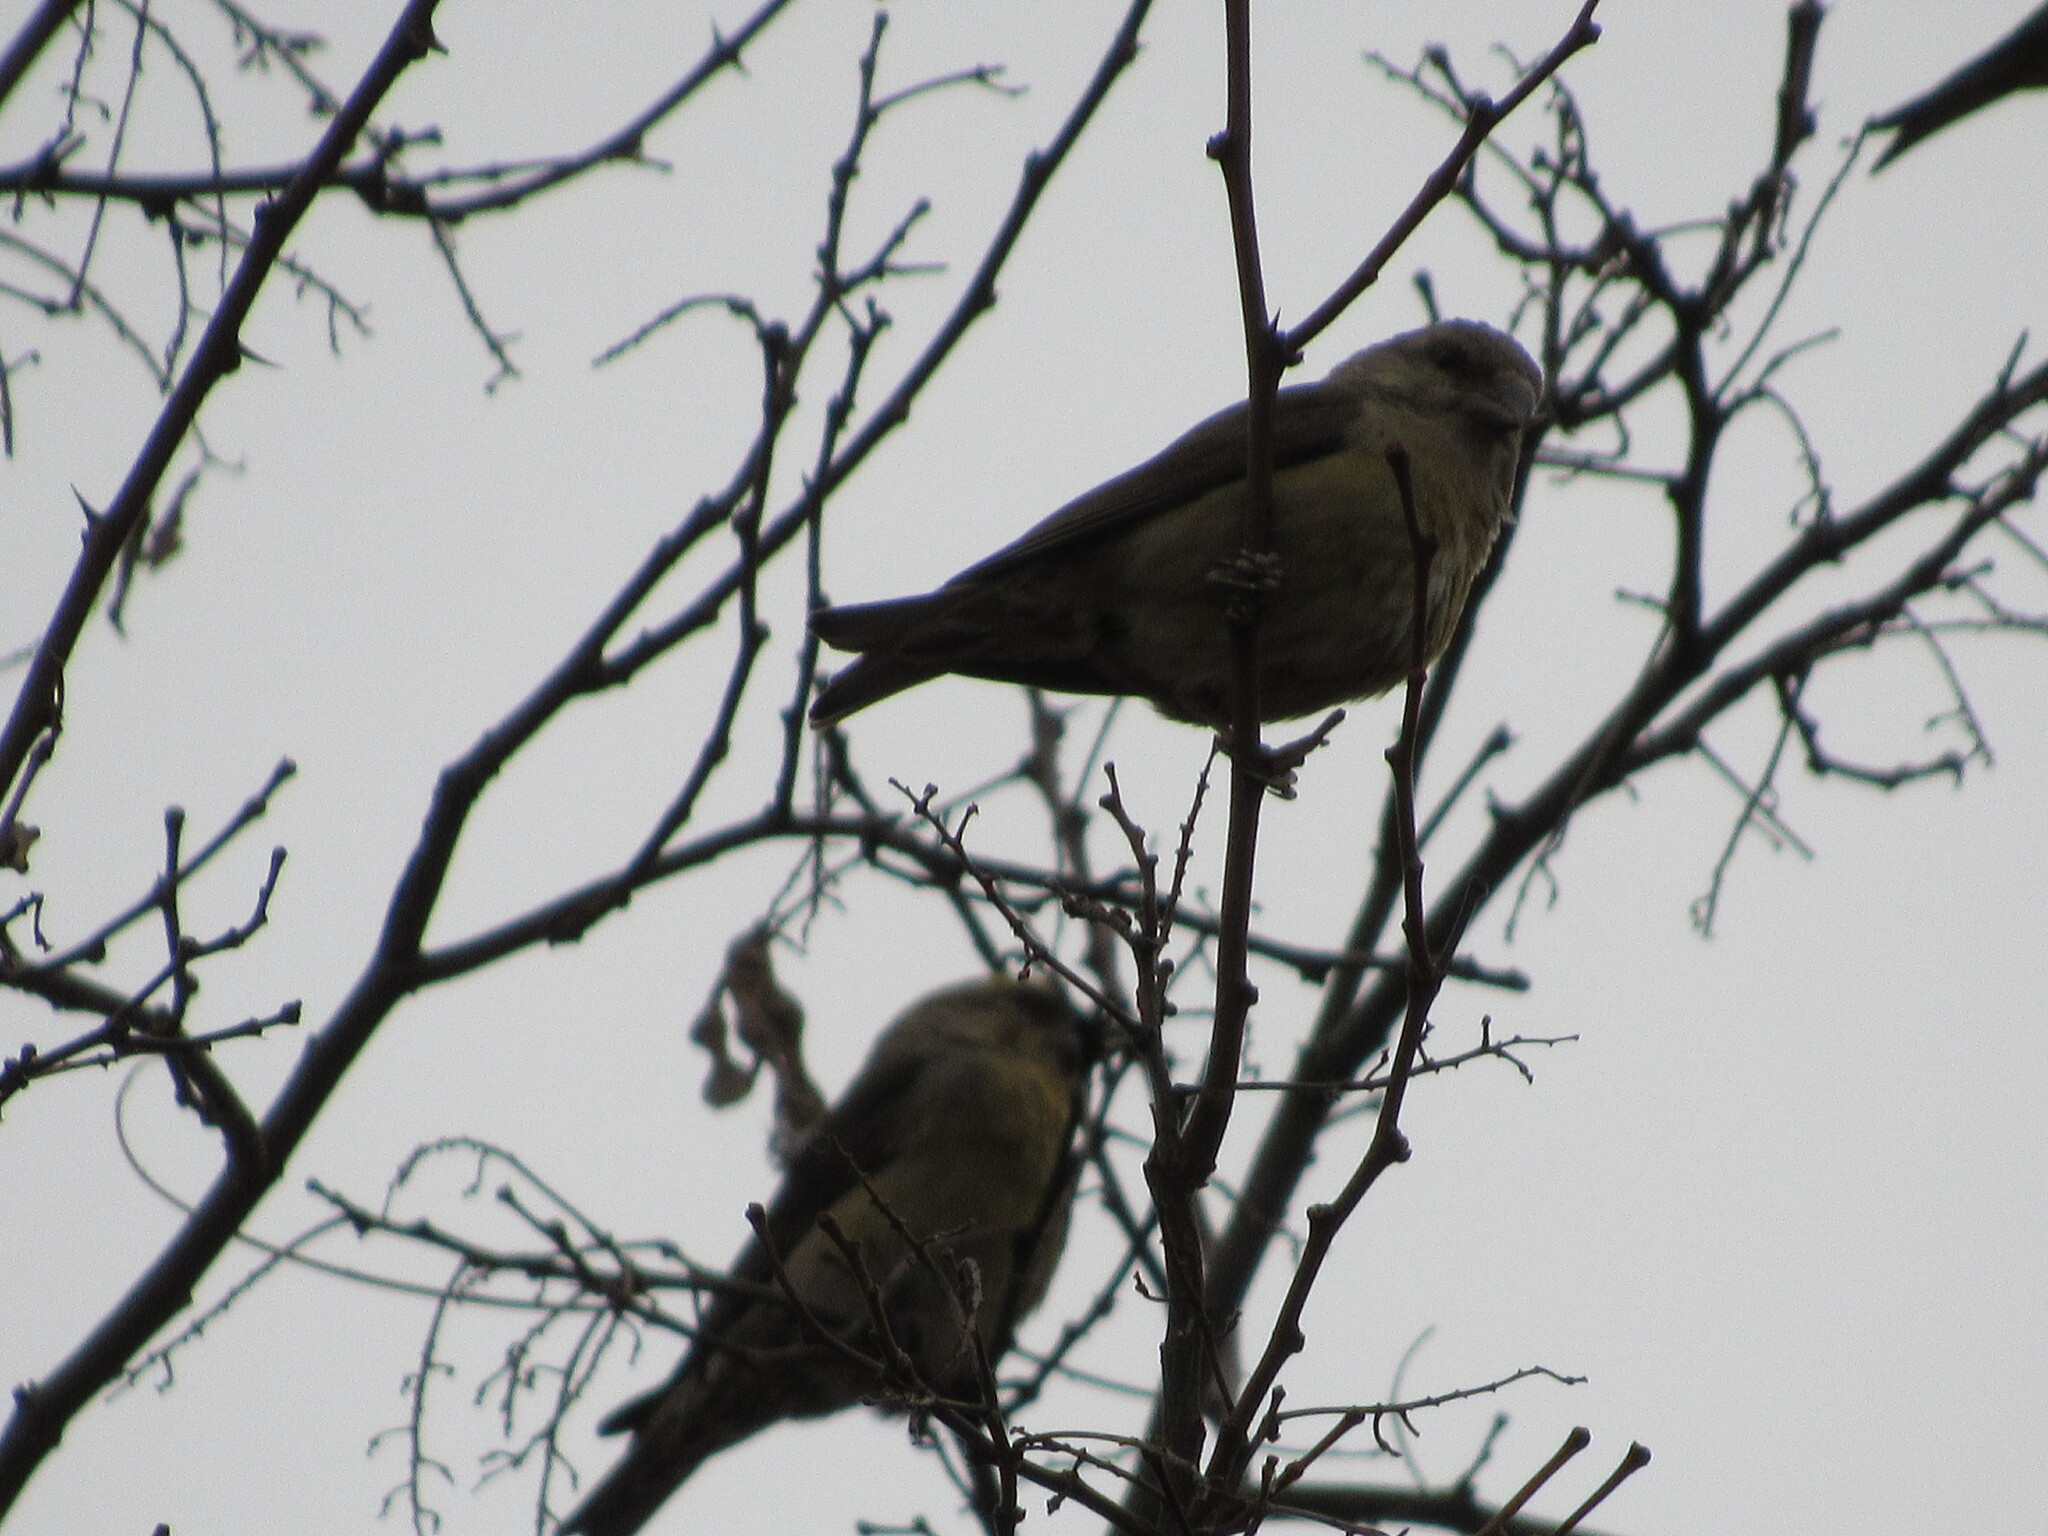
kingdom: Animalia
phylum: Chordata
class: Aves
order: Passeriformes
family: Fringillidae
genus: Loxia
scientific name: Loxia curvirostra
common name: Red crossbill
